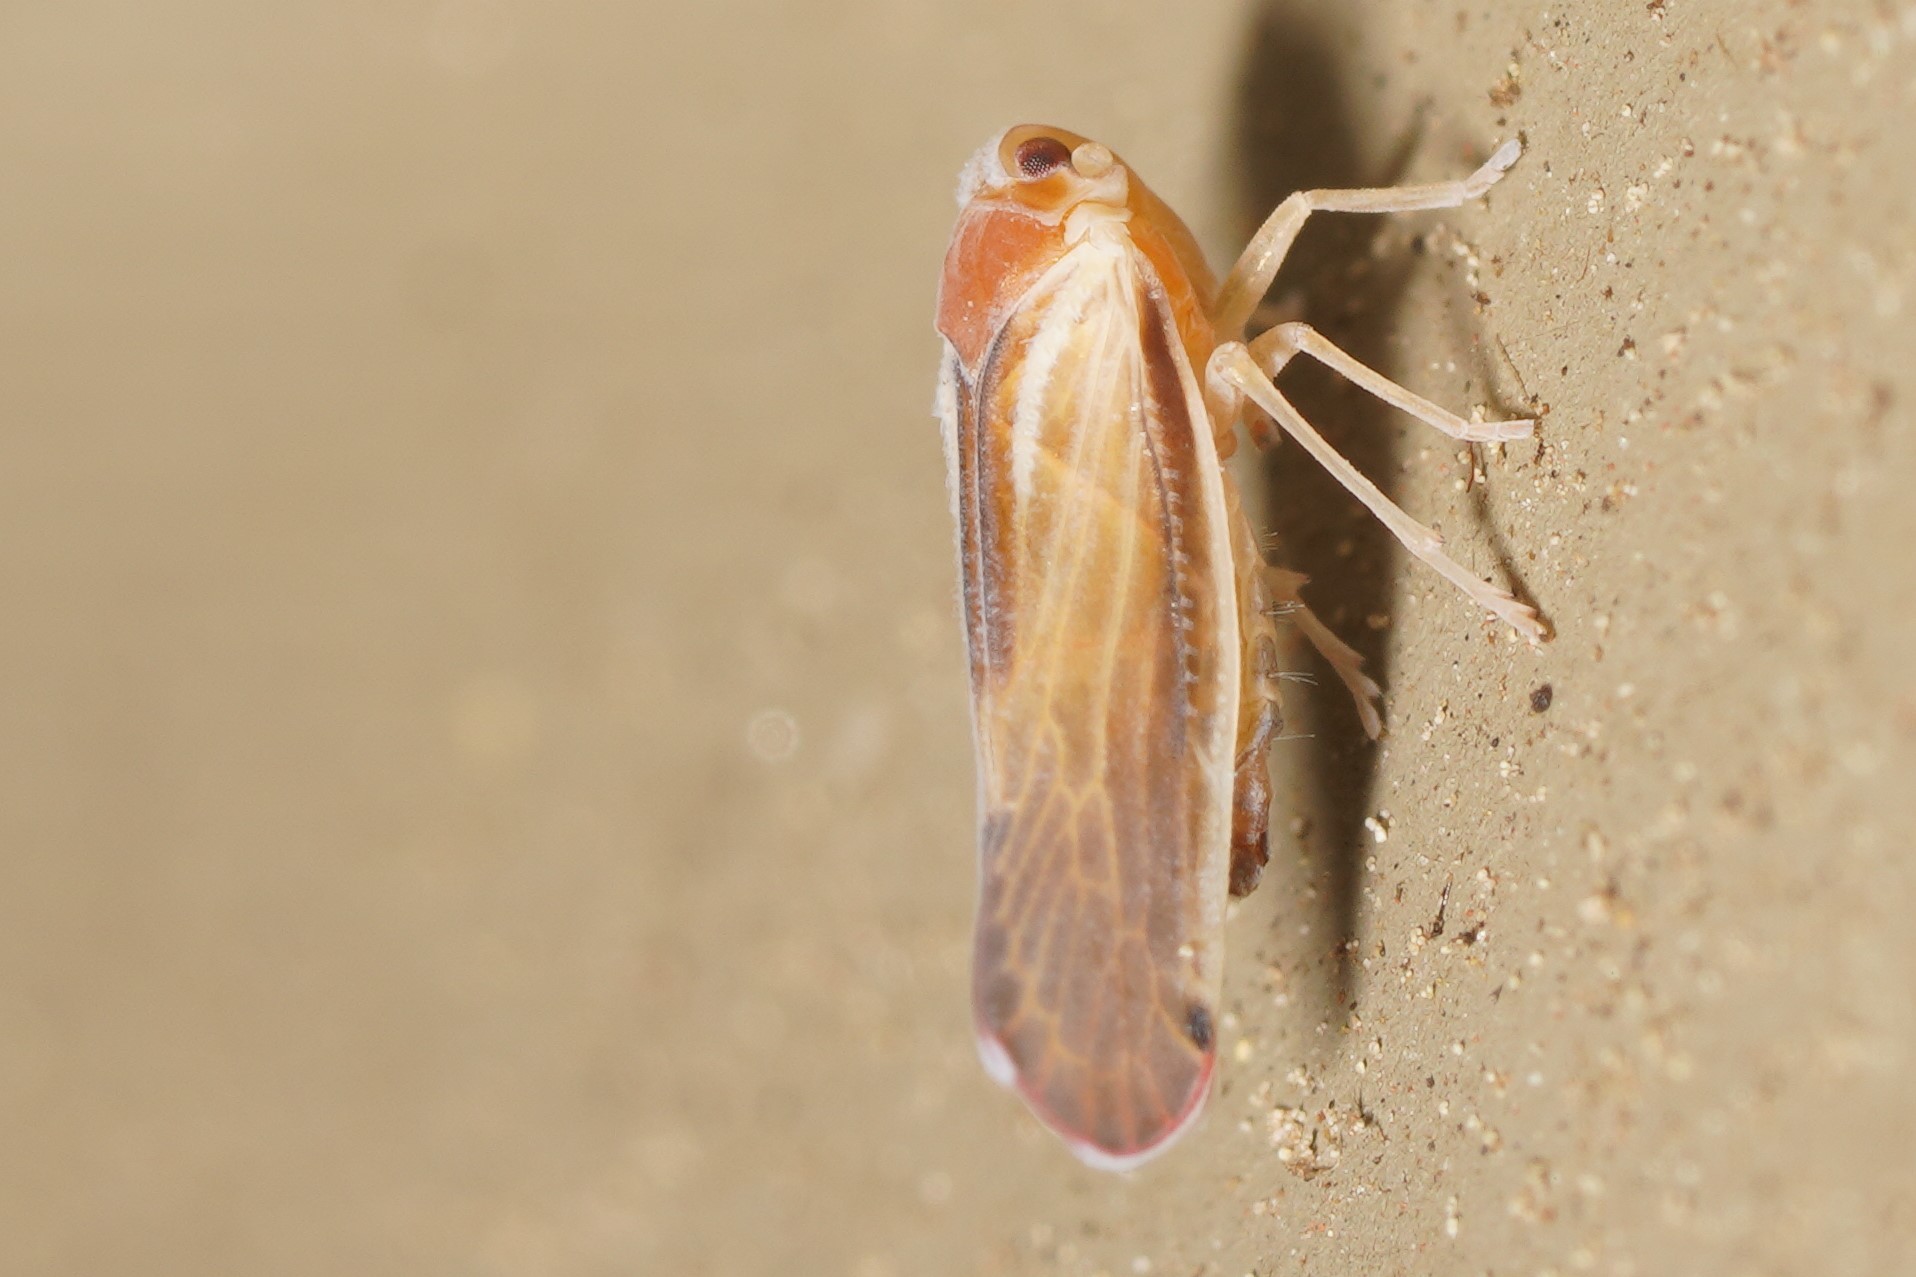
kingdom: Animalia
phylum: Arthropoda
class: Insecta
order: Hemiptera
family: Derbidae
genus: Omolicna
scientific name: Omolicna uhleri
